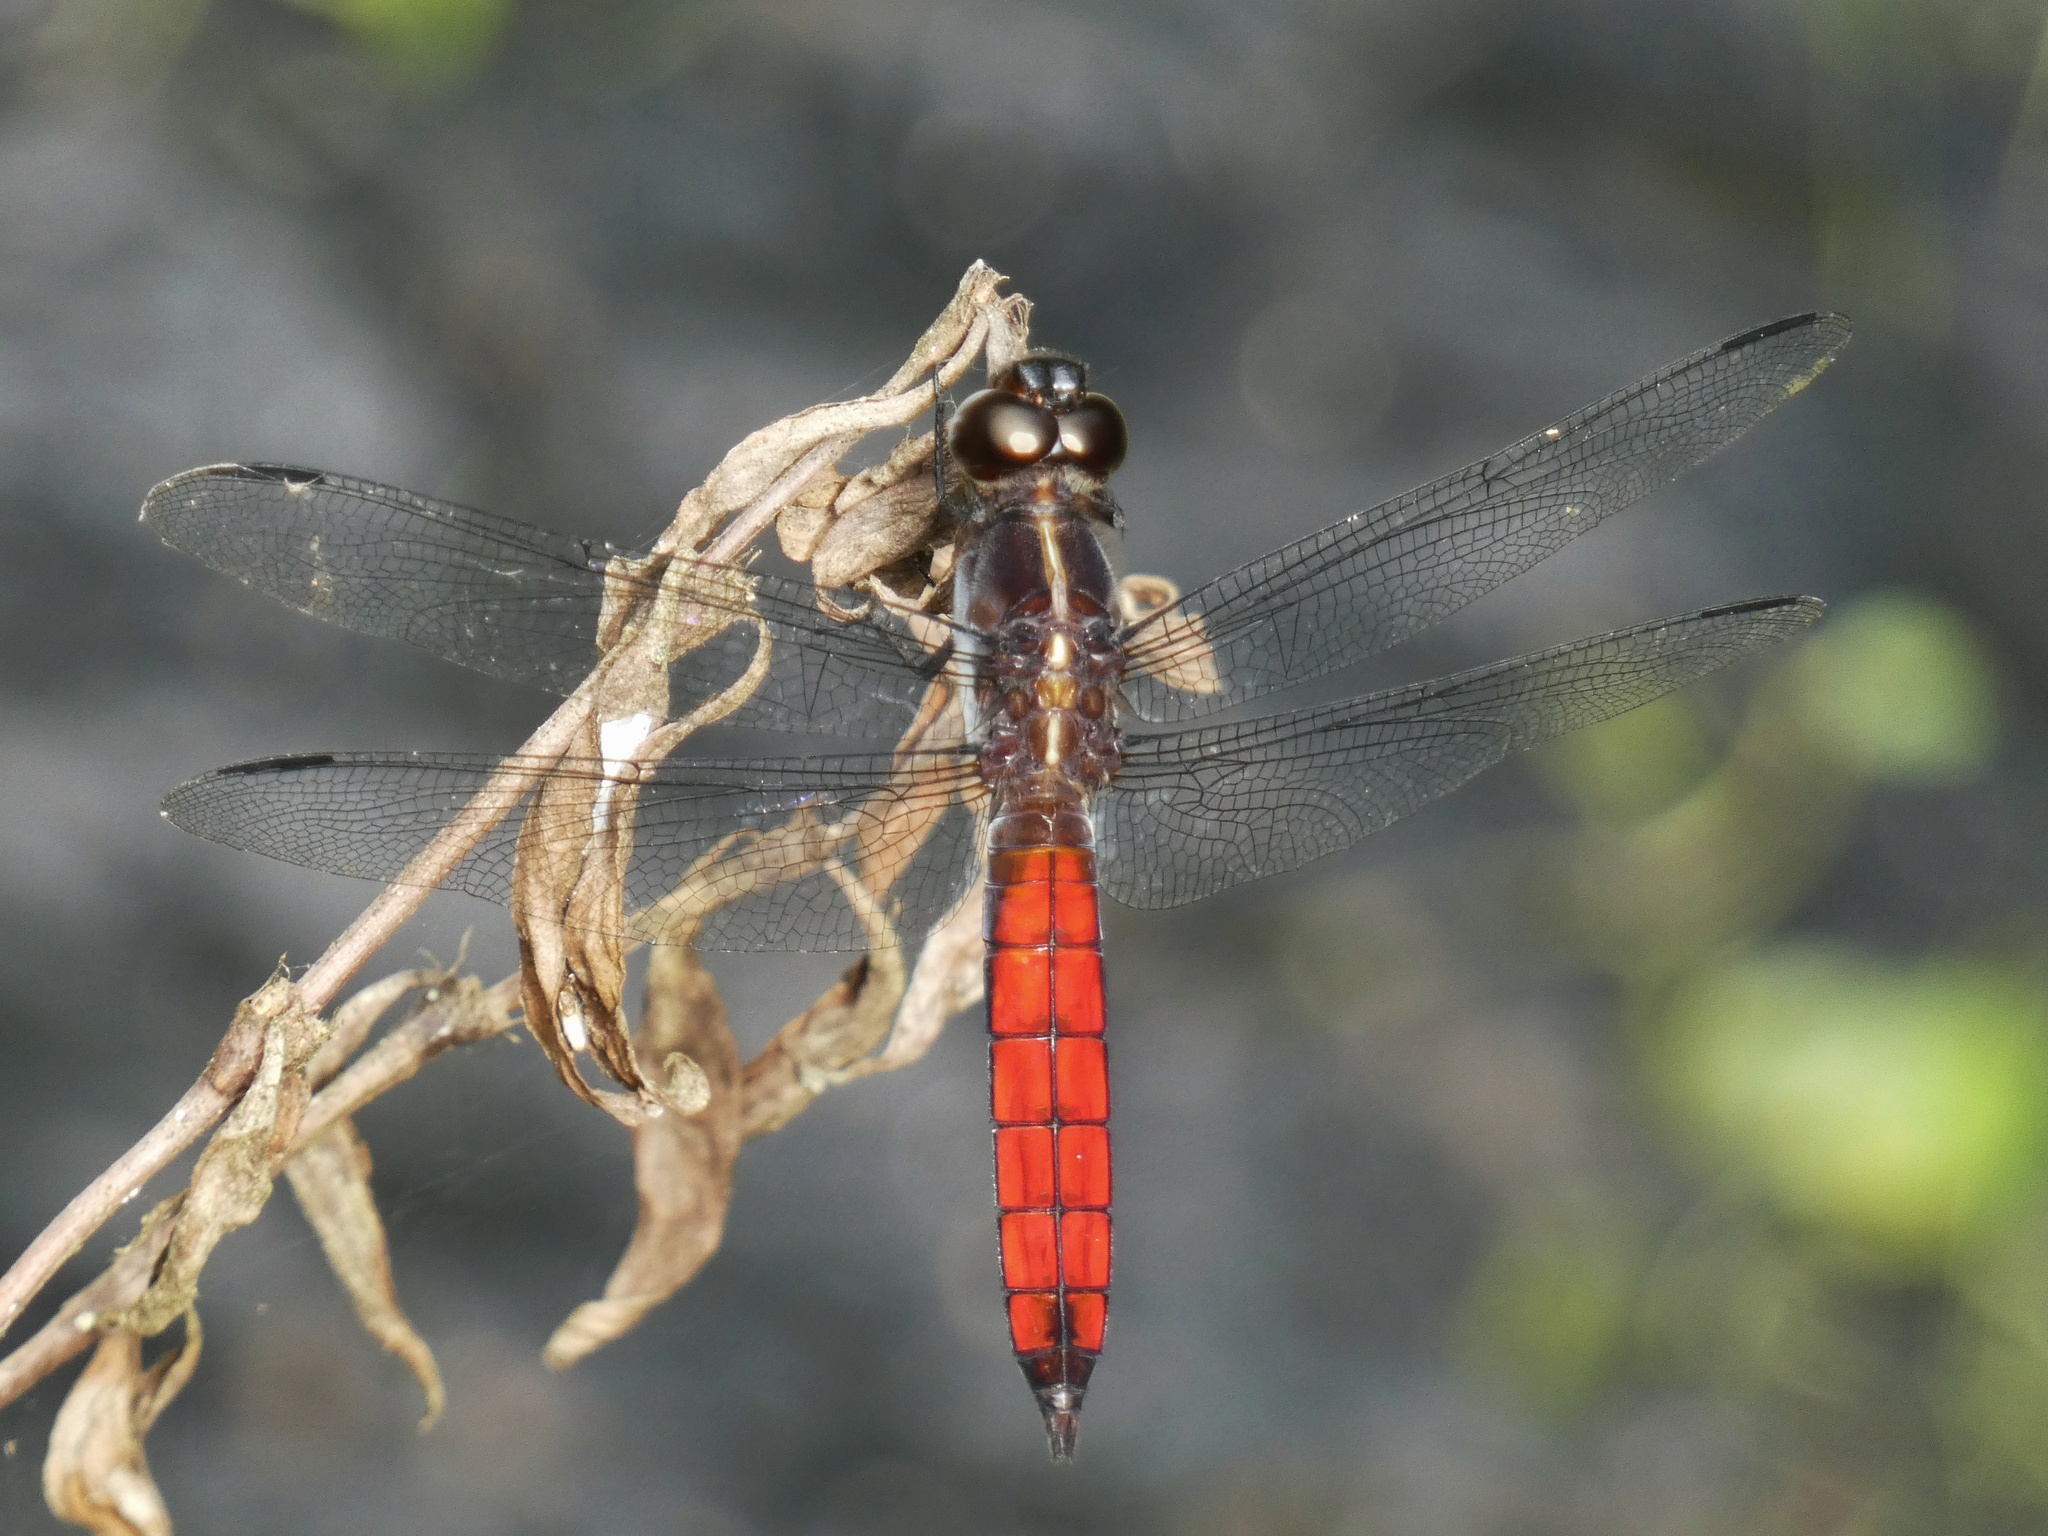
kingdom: Animalia
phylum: Arthropoda
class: Insecta
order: Odonata
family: Libellulidae
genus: Libellula
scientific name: Libellula herculea
